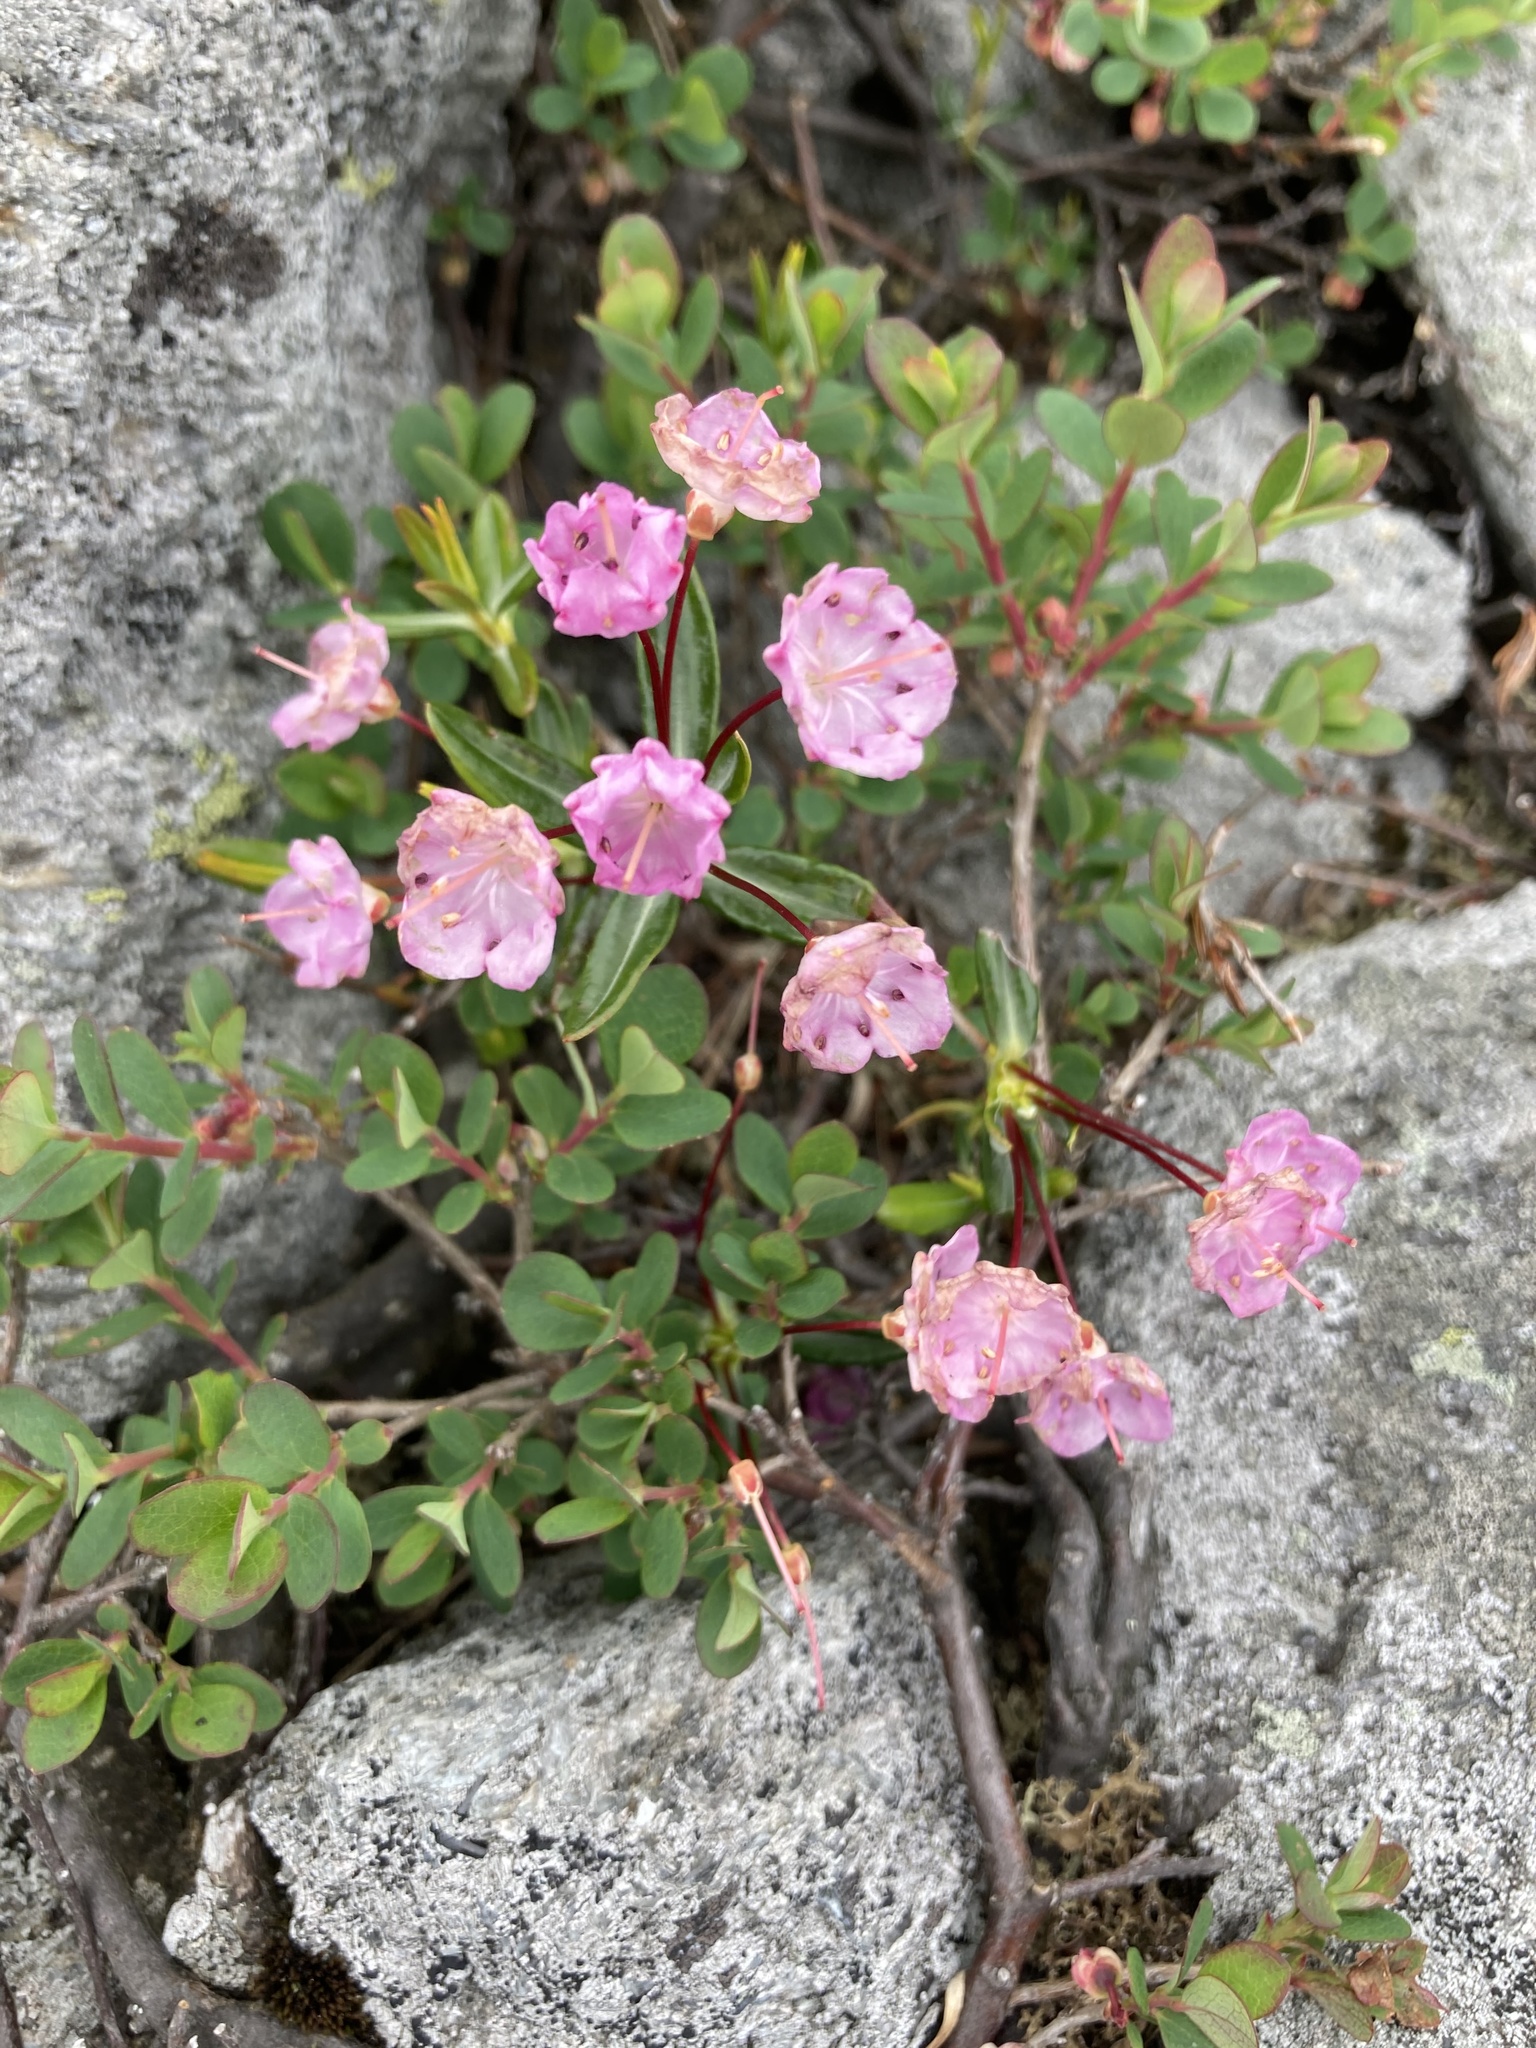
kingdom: Plantae
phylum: Tracheophyta
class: Magnoliopsida
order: Ericales
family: Ericaceae
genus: Kalmia
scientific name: Kalmia polifolia
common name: Bog-laurel
